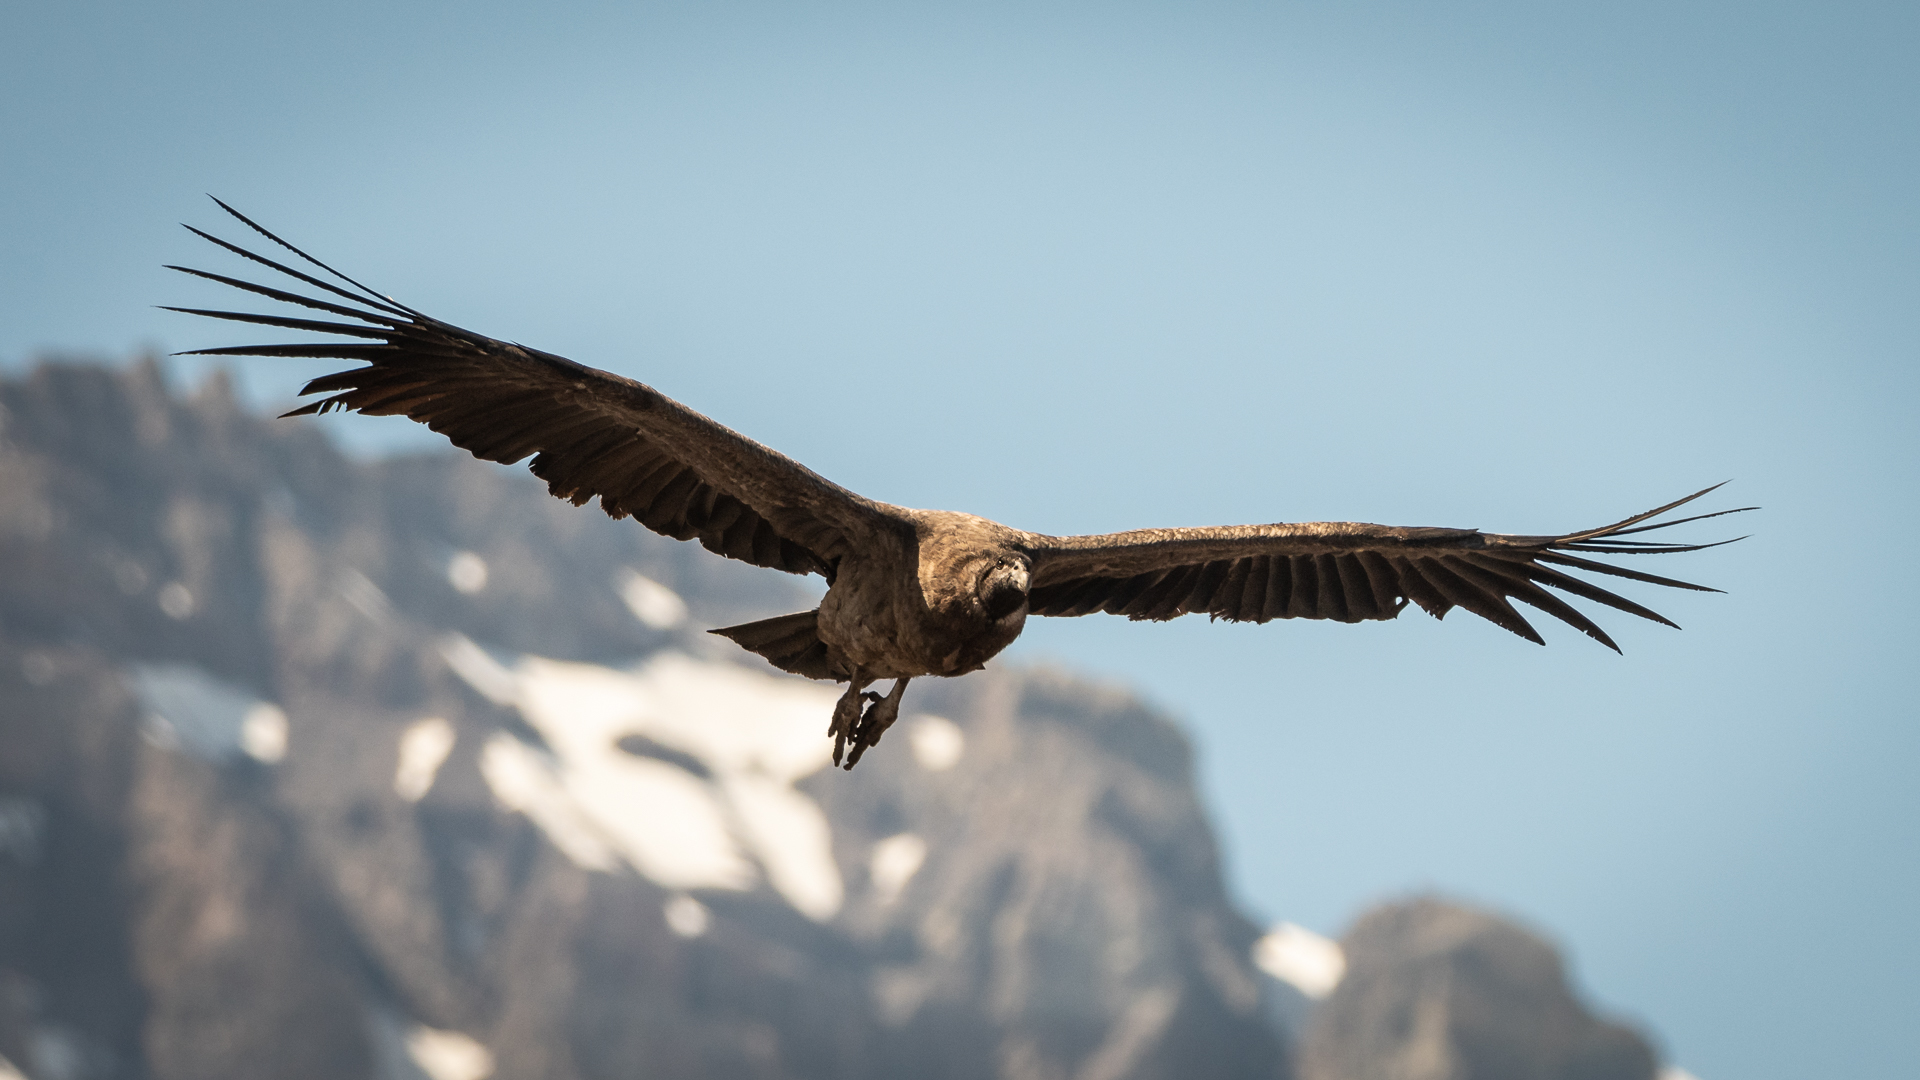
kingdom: Animalia
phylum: Chordata
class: Aves
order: Accipitriformes
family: Cathartidae
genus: Vultur
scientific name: Vultur gryphus
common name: Andean condor
